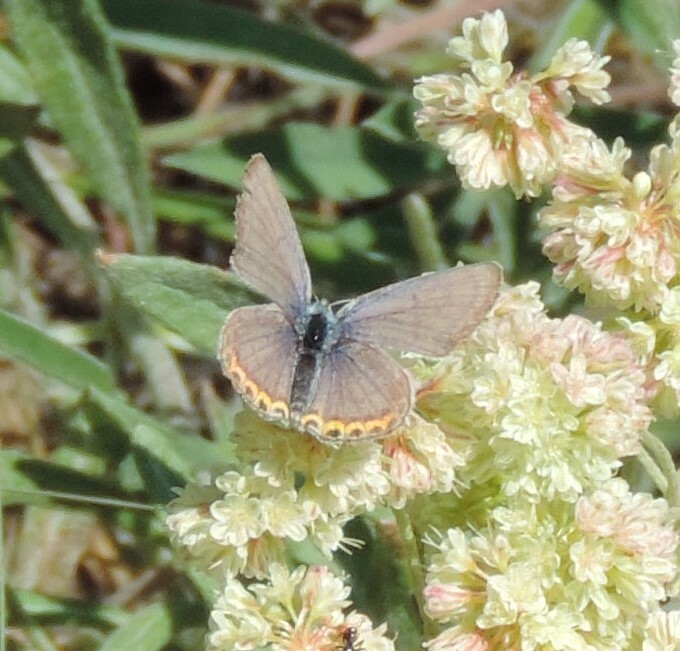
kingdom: Animalia
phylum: Arthropoda
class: Insecta
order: Lepidoptera
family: Lycaenidae
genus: Icaricia
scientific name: Icaricia lupini
